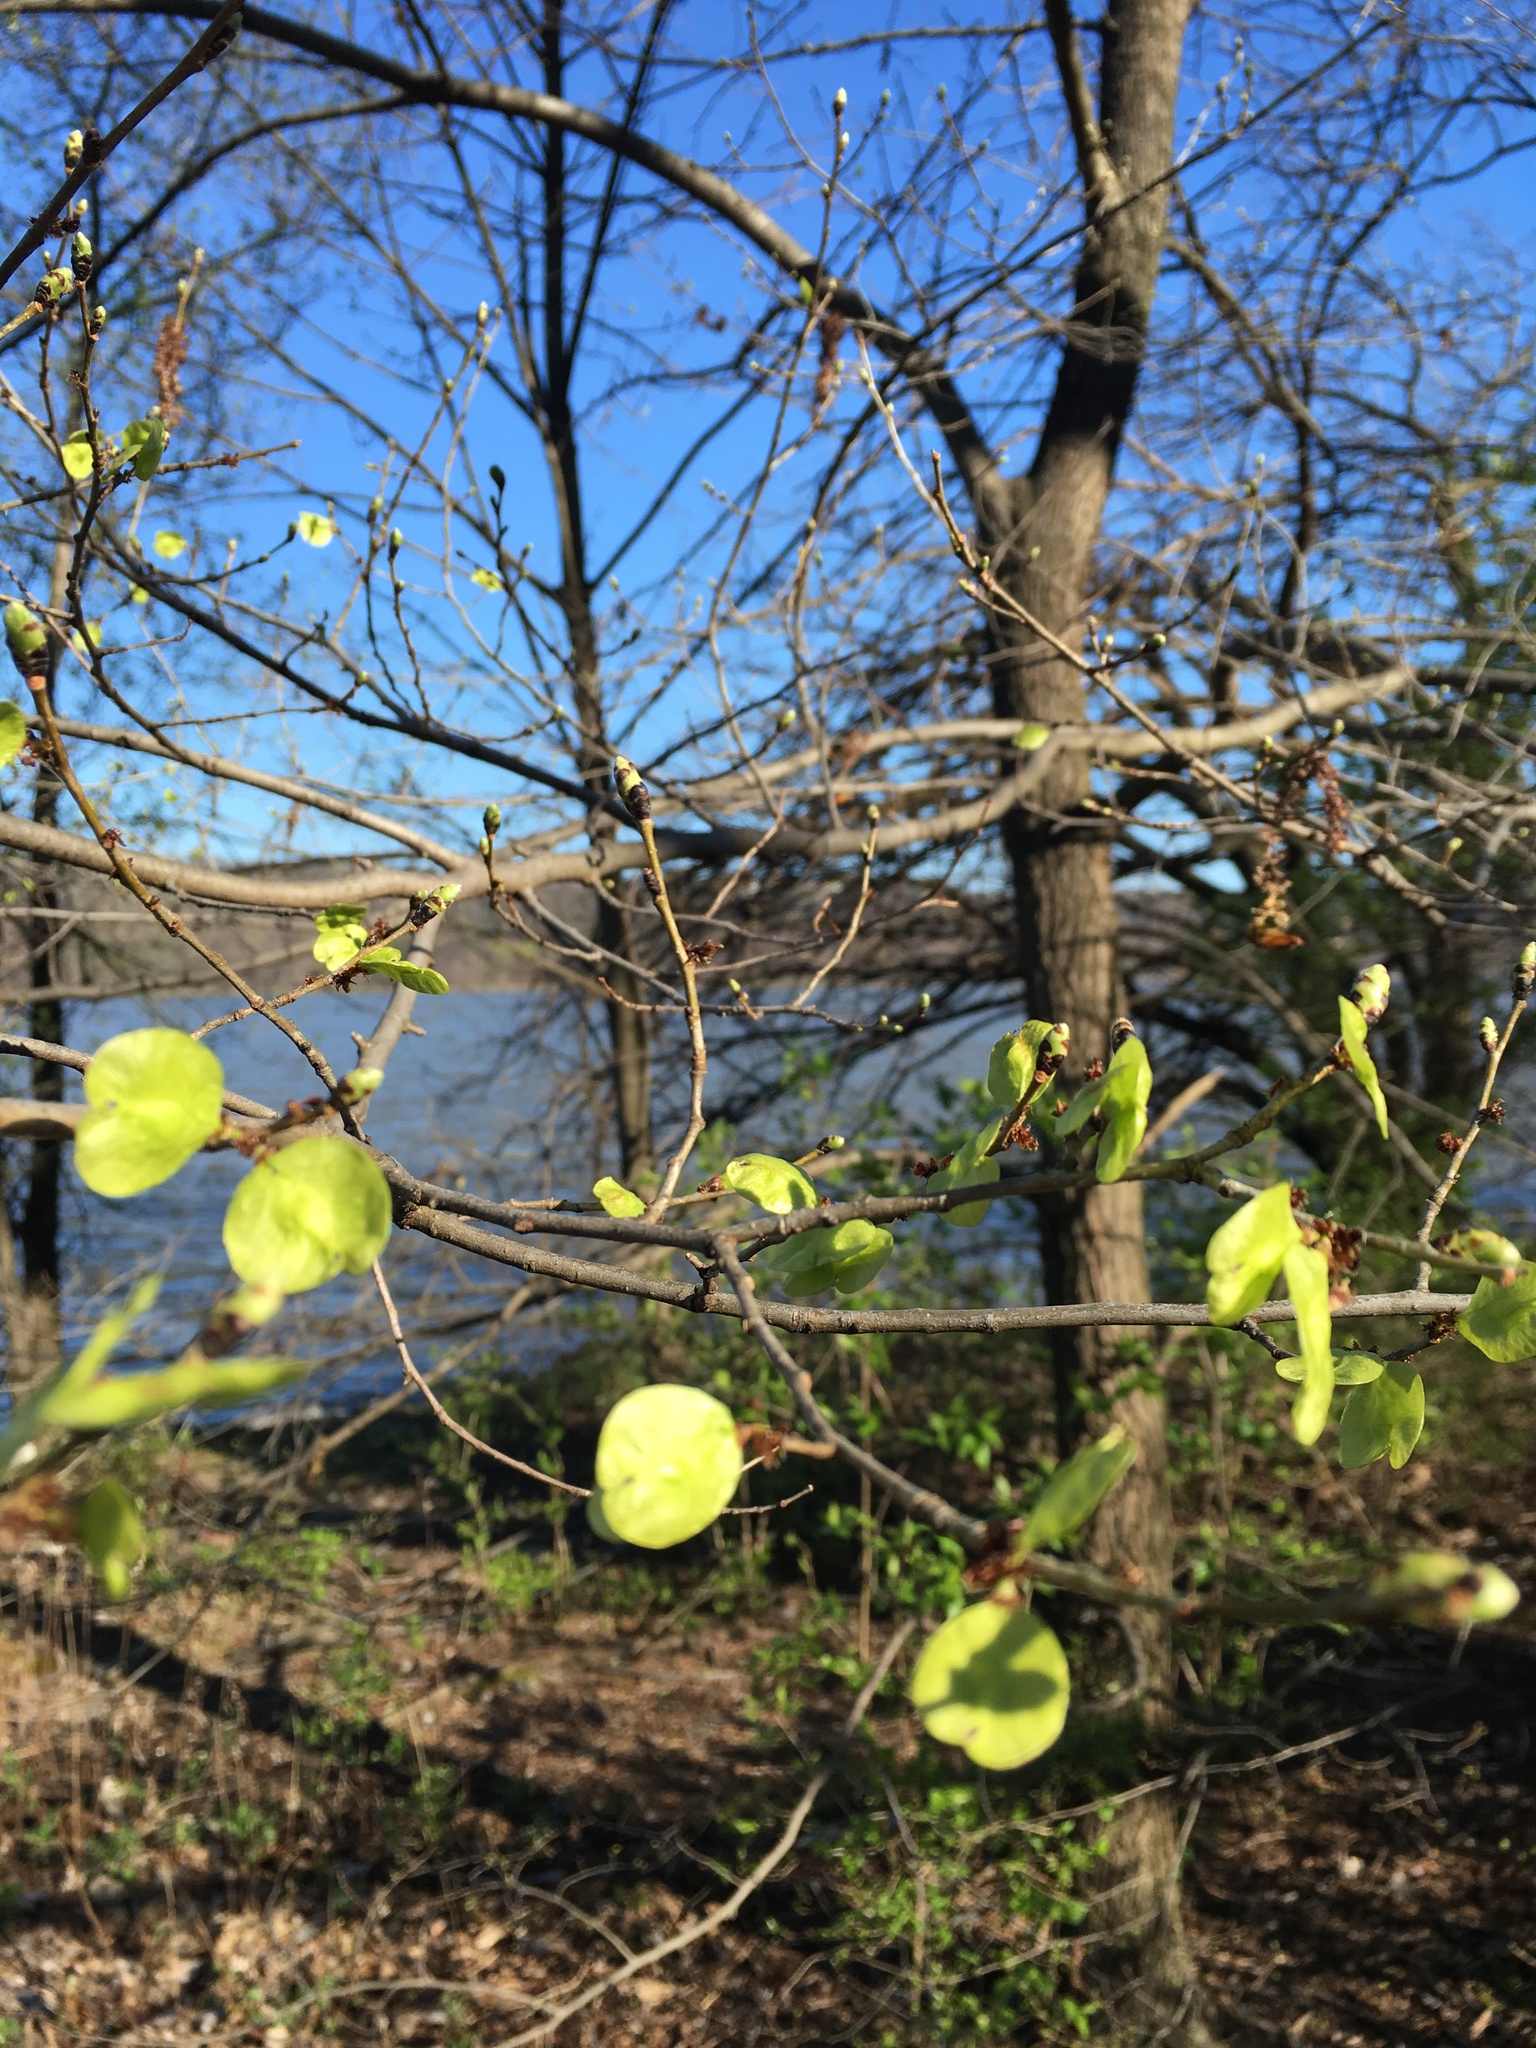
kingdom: Plantae
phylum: Tracheophyta
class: Magnoliopsida
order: Rosales
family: Ulmaceae
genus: Ulmus
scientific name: Ulmus pumila
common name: Siberian elm
